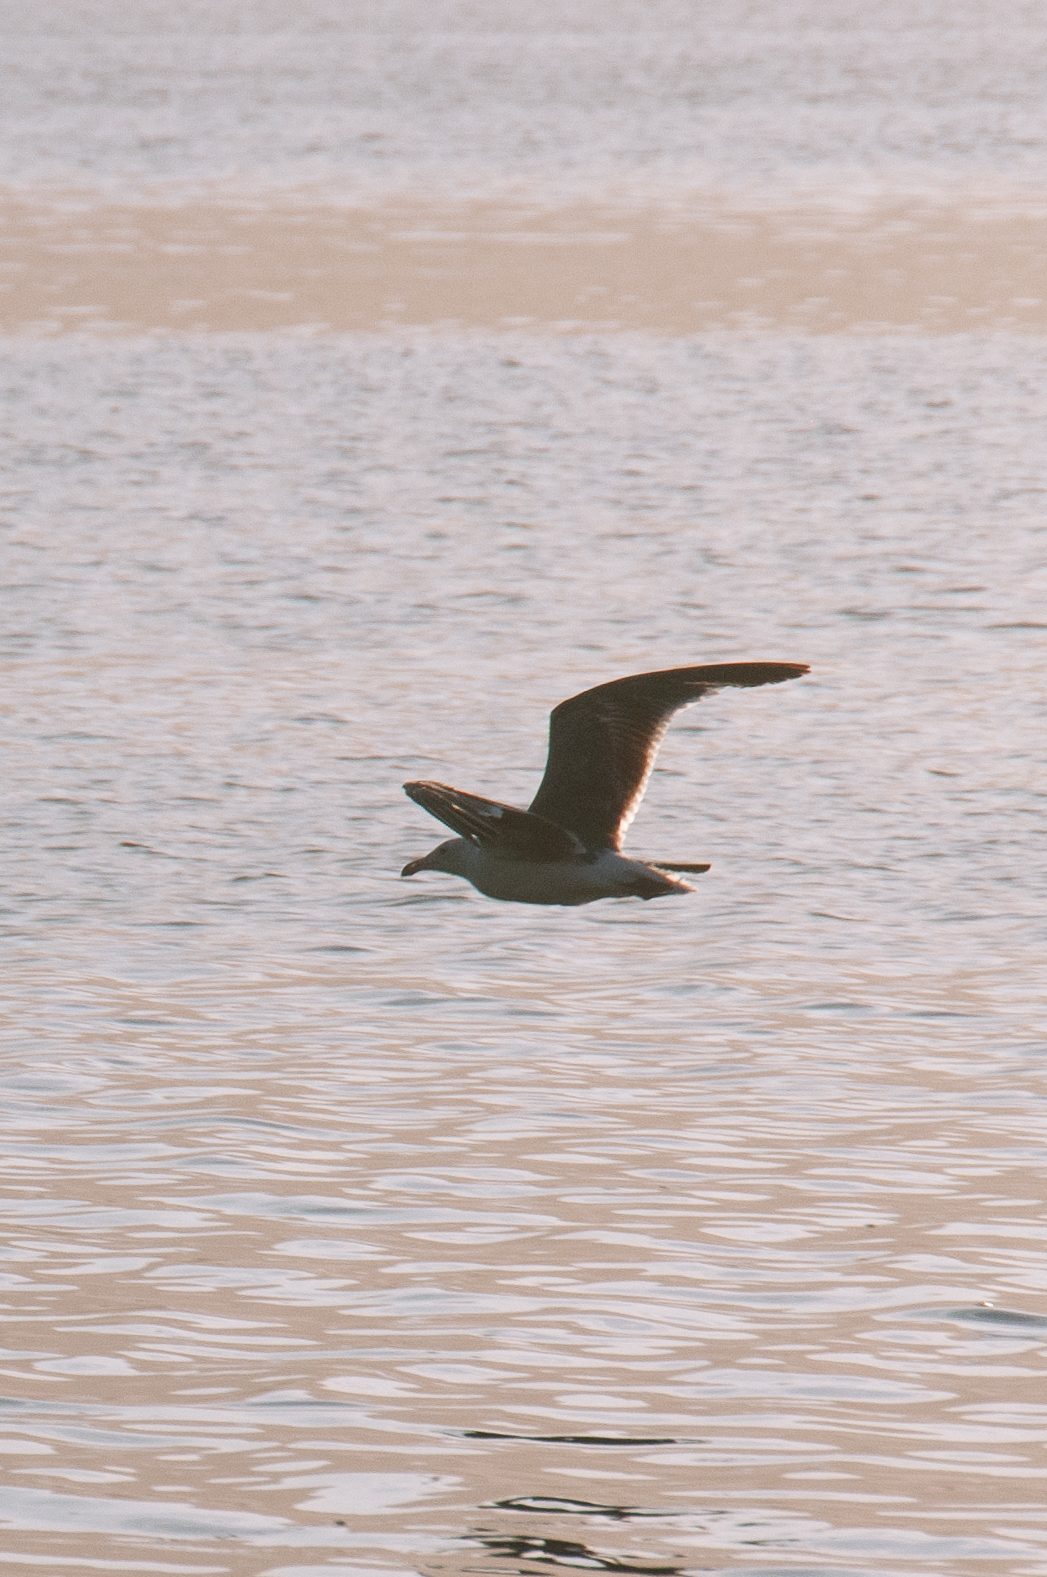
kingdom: Animalia
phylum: Chordata
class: Aves
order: Charadriiformes
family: Laridae
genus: Larus
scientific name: Larus occidentalis
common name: Western gull
